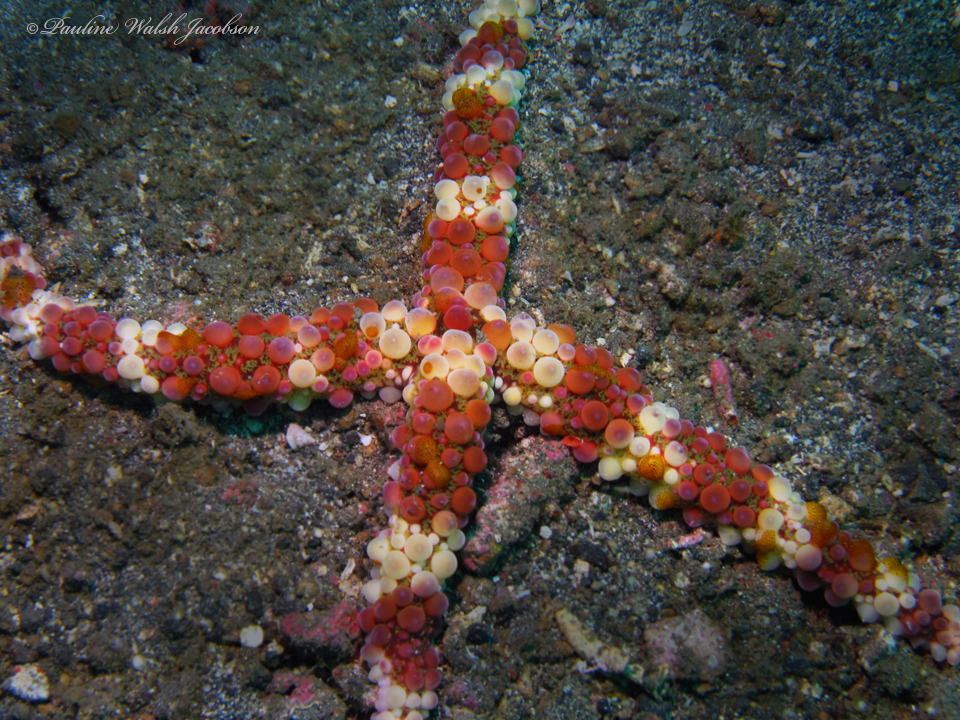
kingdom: Animalia
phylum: Echinodermata
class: Asteroidea
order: Spinulosida
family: Echinasteridae
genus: Echinaster
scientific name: Echinaster callosus
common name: Banded bubble star
